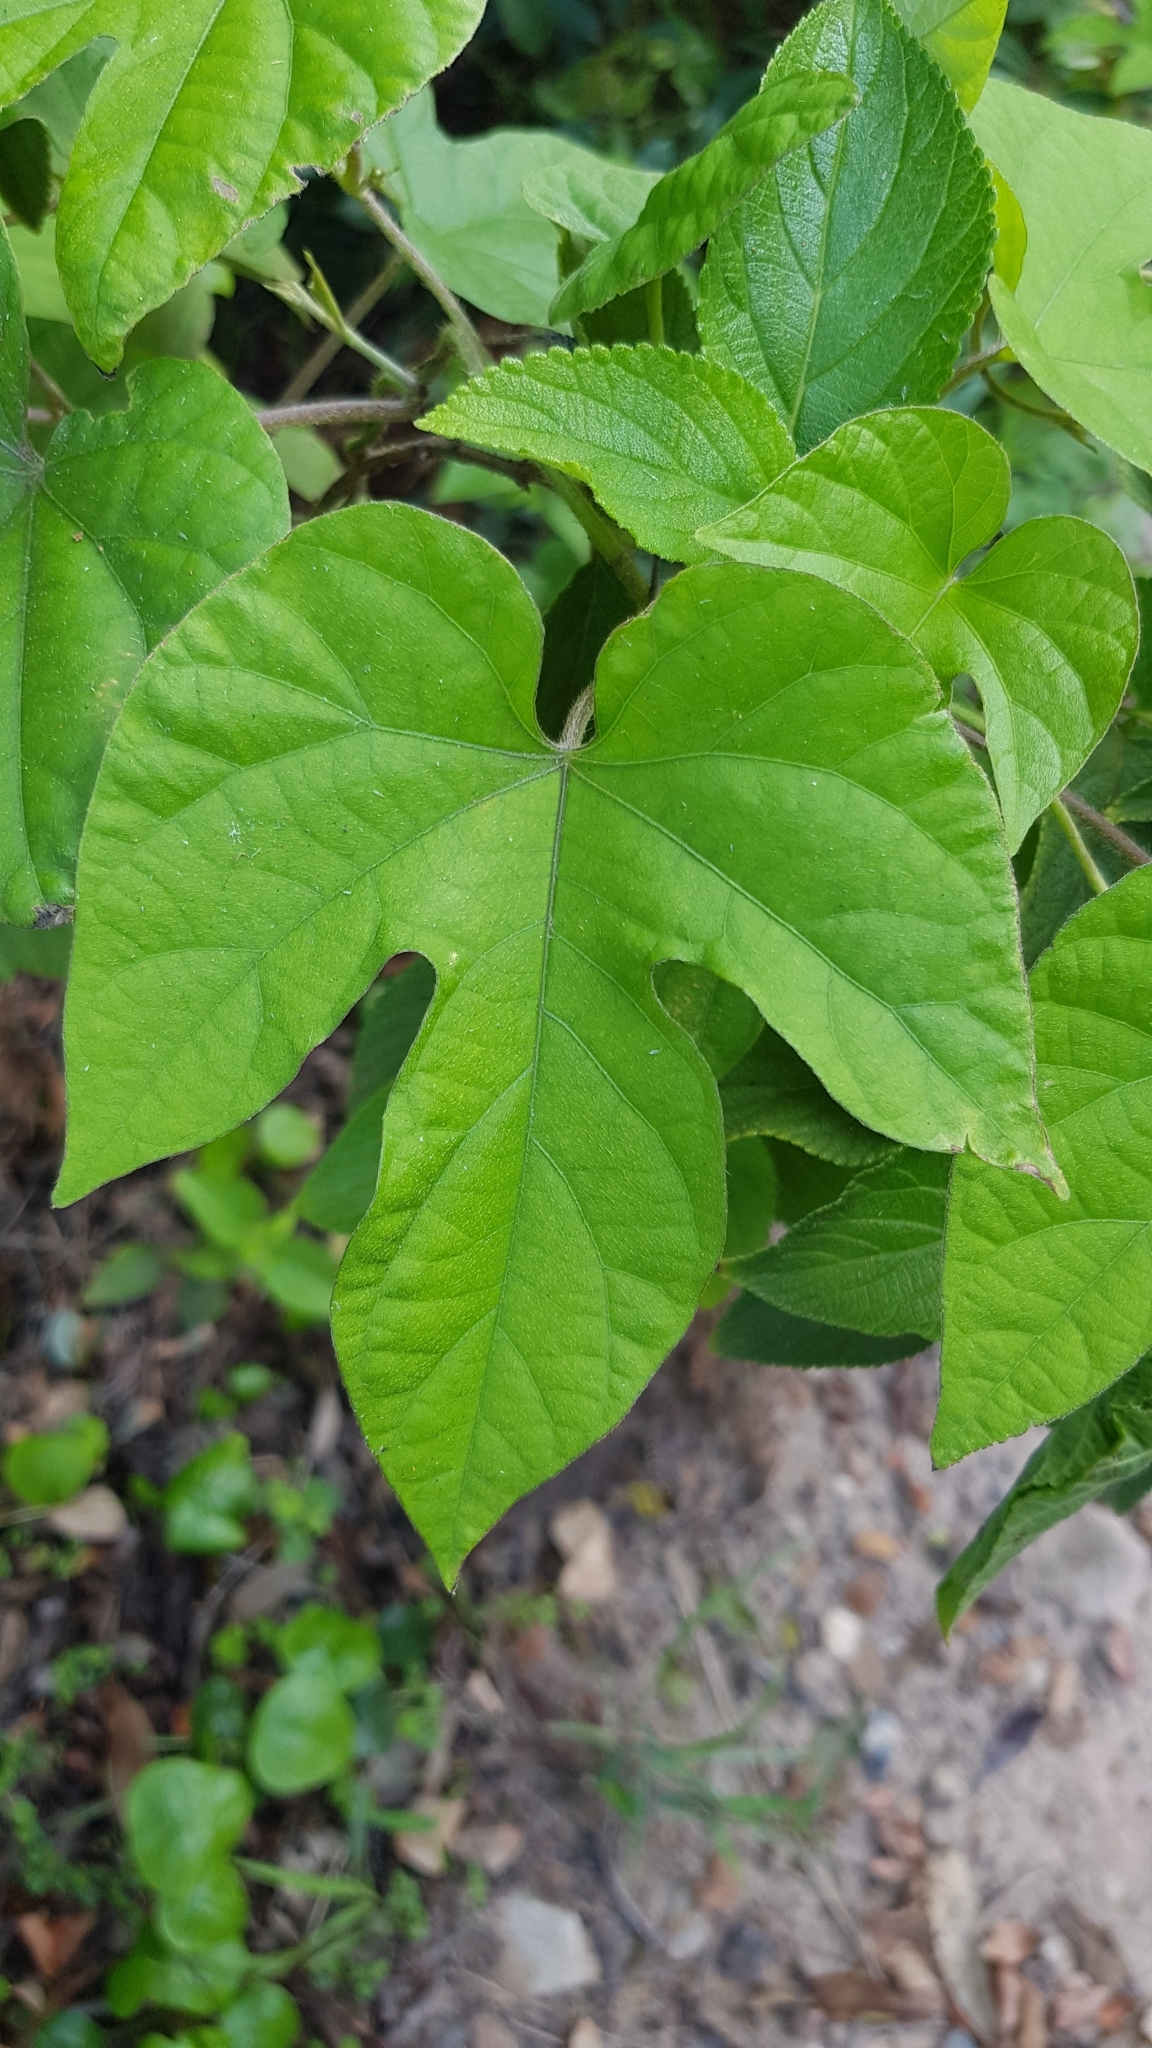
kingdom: Plantae
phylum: Tracheophyta
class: Magnoliopsida
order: Solanales
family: Convolvulaceae
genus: Ipomoea
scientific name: Ipomoea indica
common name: Blue dawnflower
